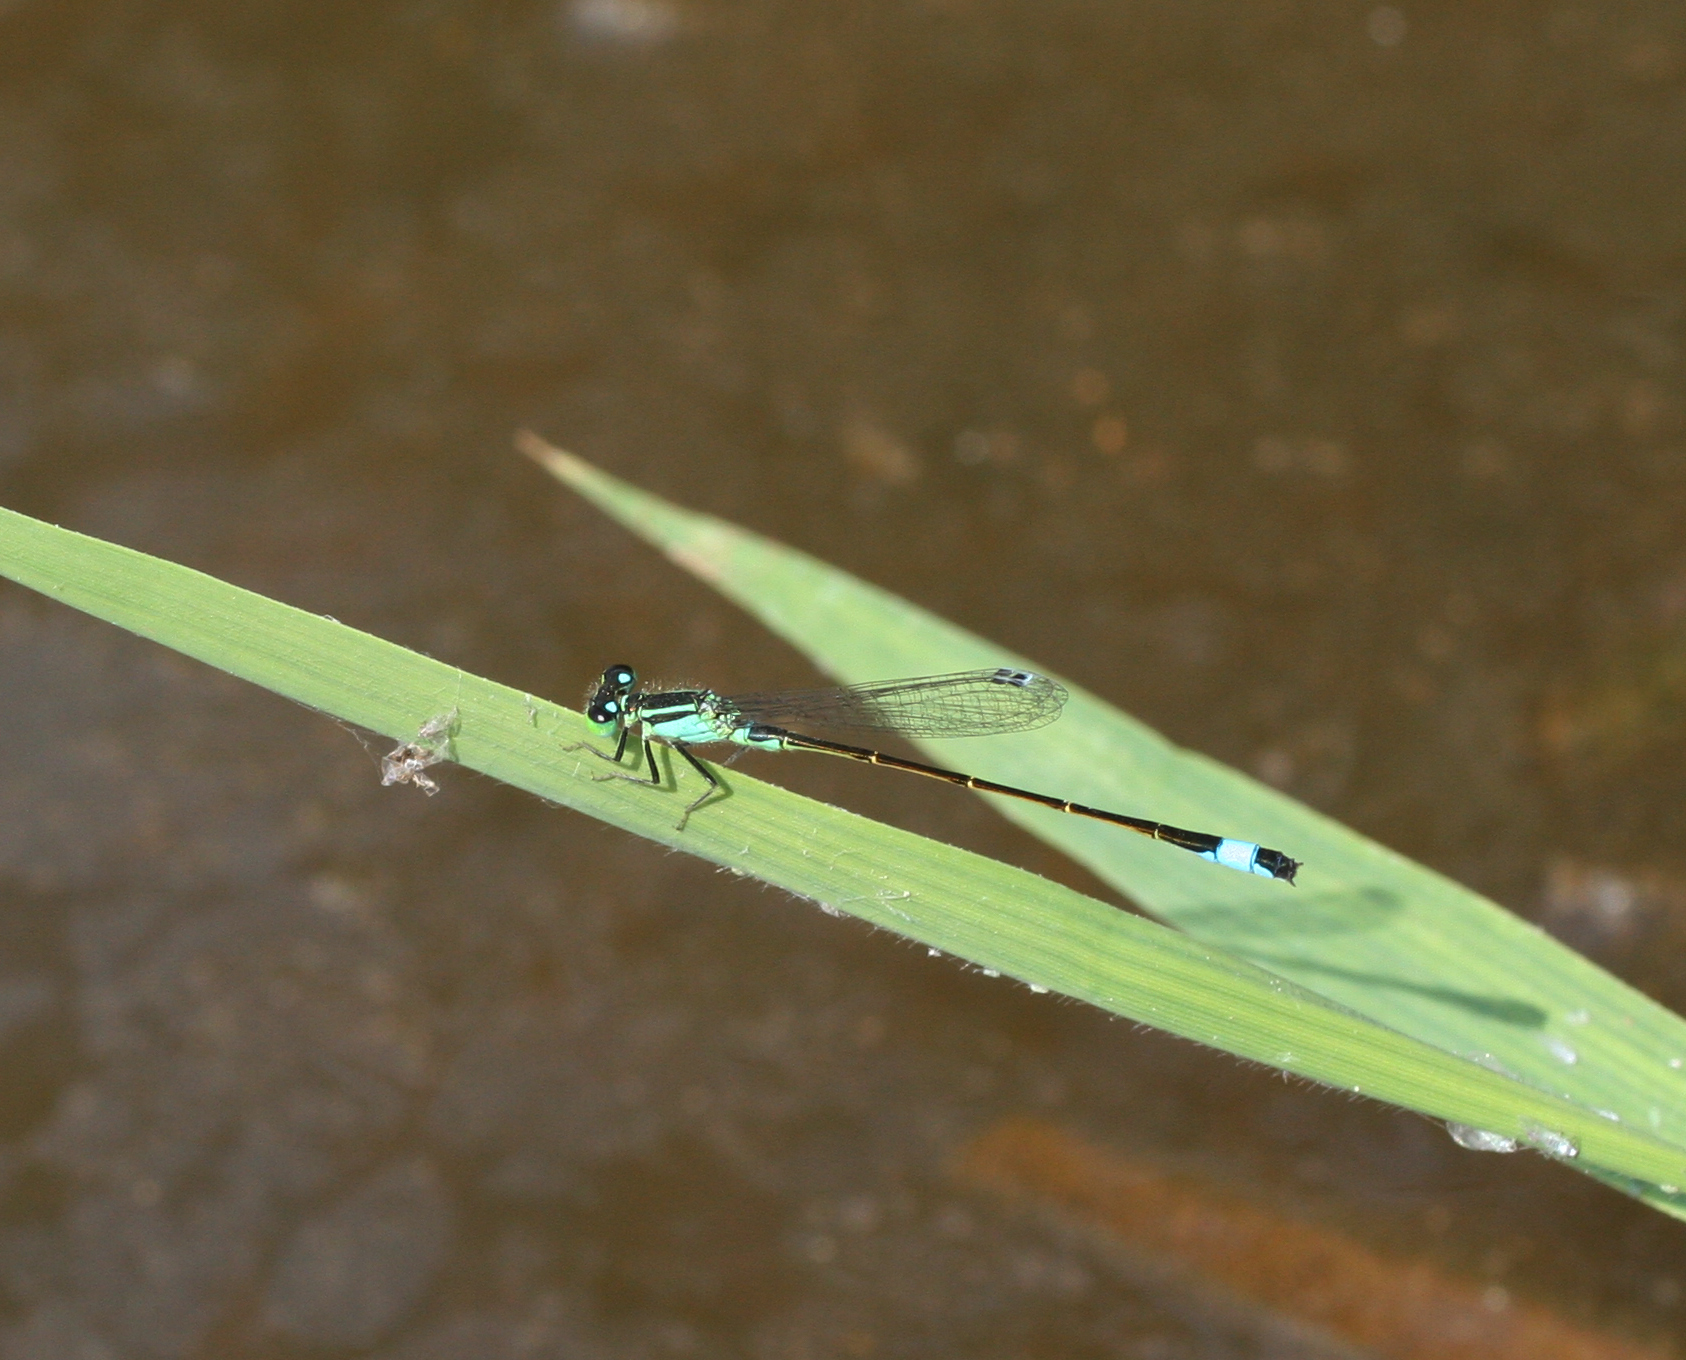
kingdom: Animalia
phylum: Arthropoda
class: Insecta
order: Odonata
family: Coenagrionidae
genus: Ischnura
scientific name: Ischnura elegans
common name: Blue-tailed damselfly
